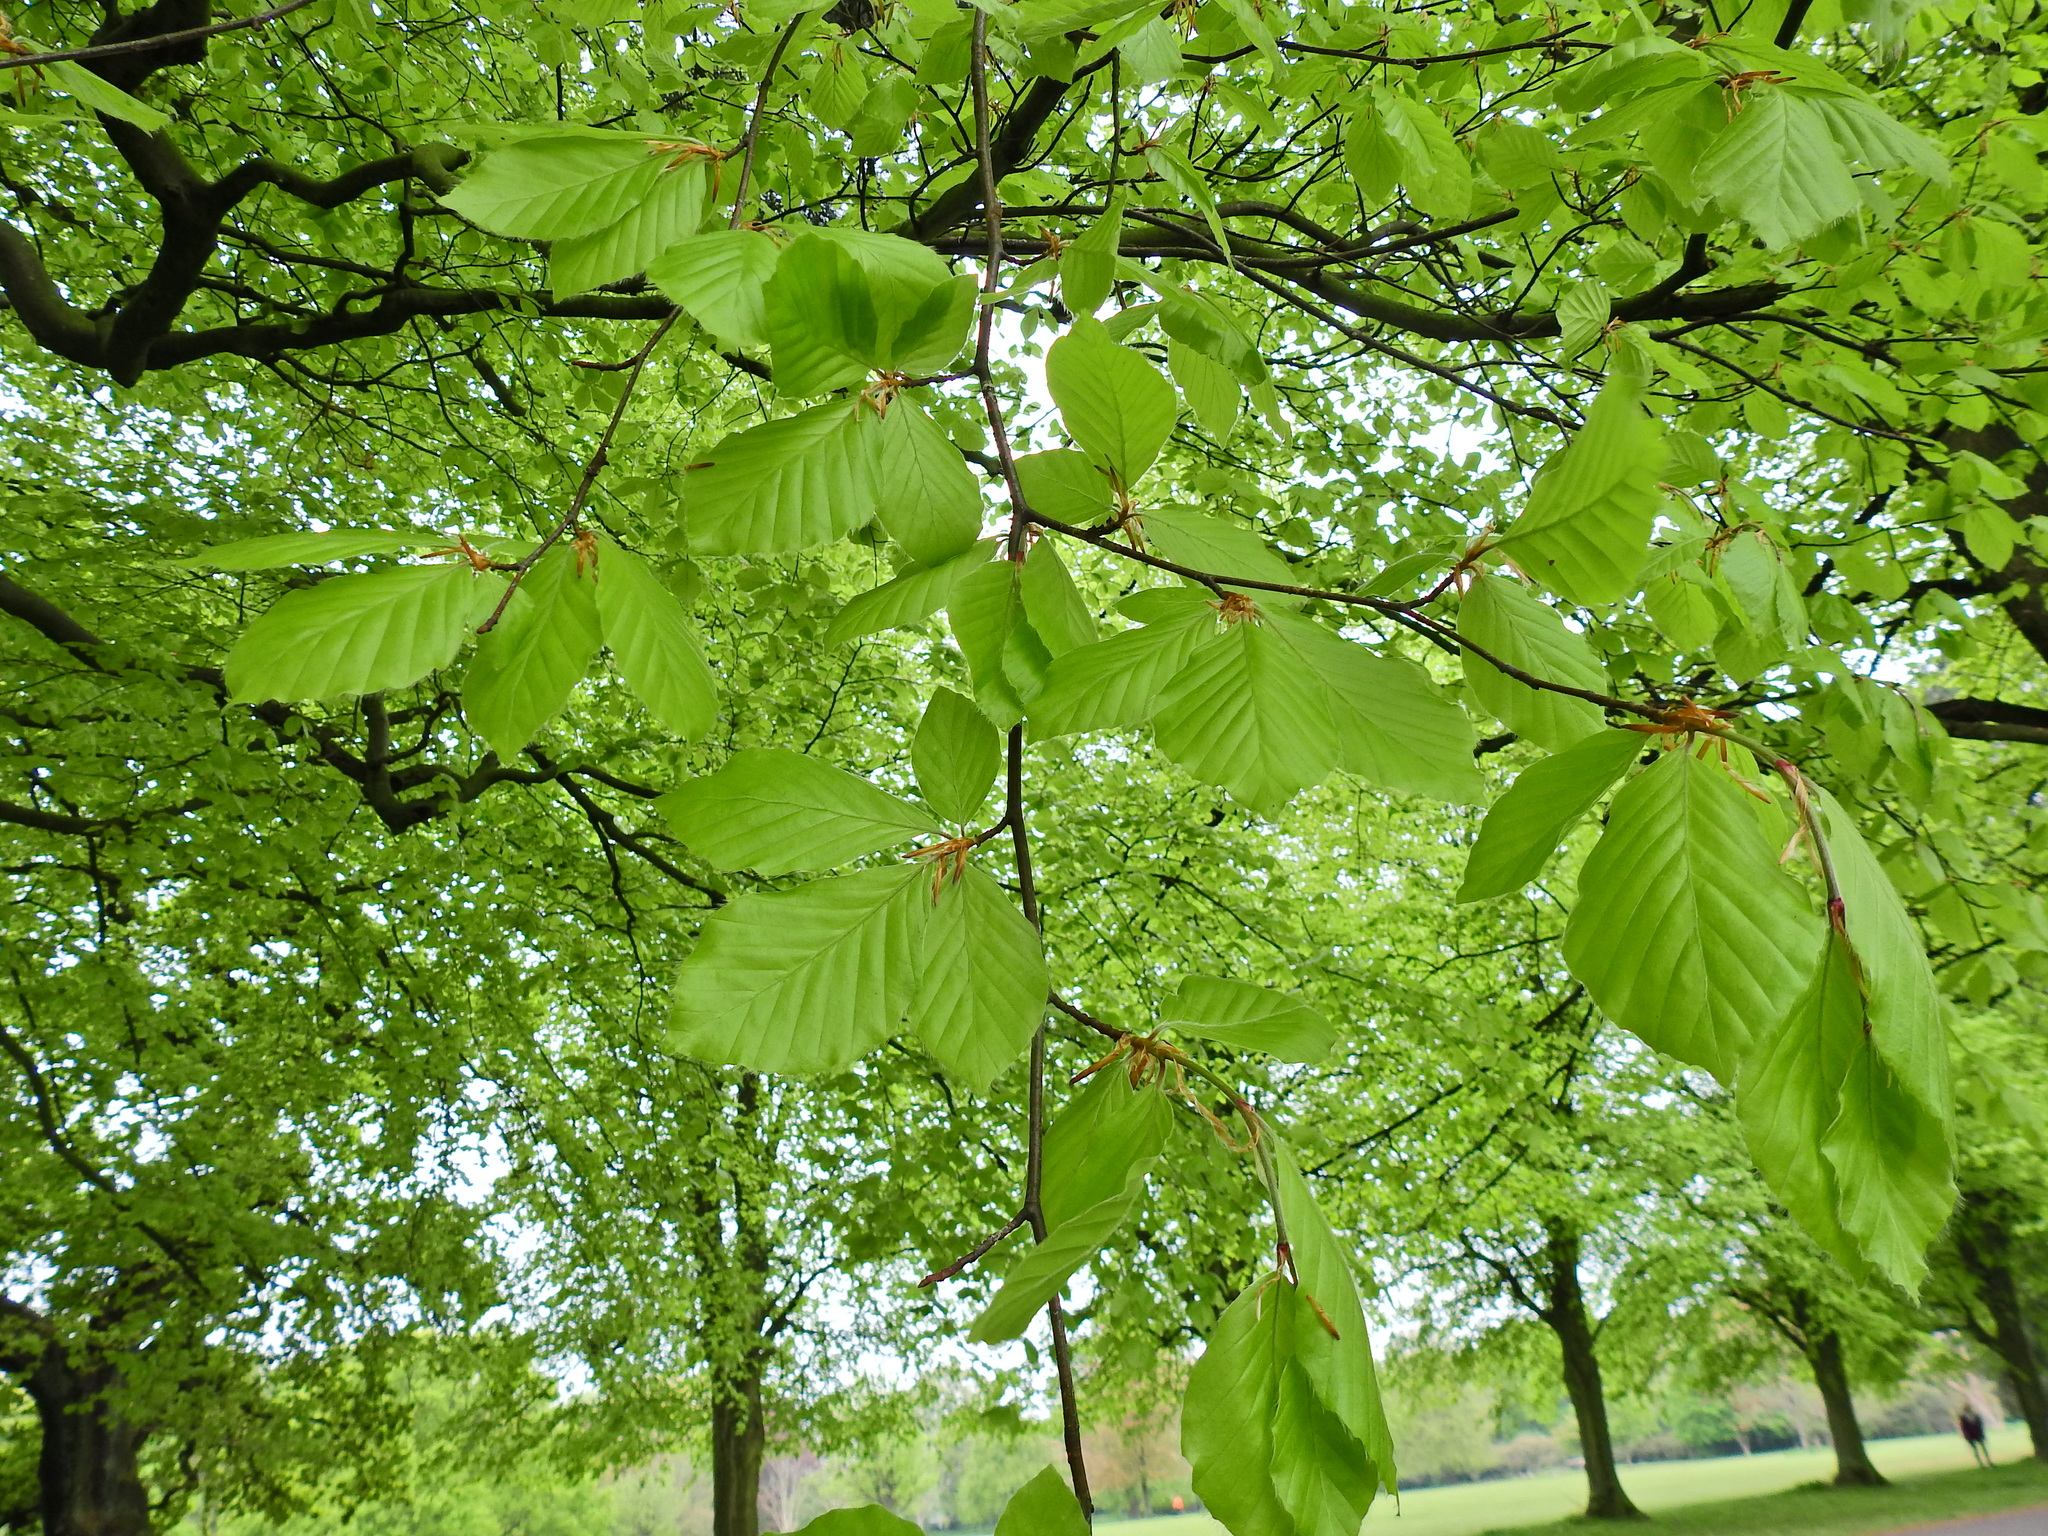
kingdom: Plantae
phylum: Tracheophyta
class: Magnoliopsida
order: Fagales
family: Fagaceae
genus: Fagus
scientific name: Fagus sylvatica
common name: Beech
